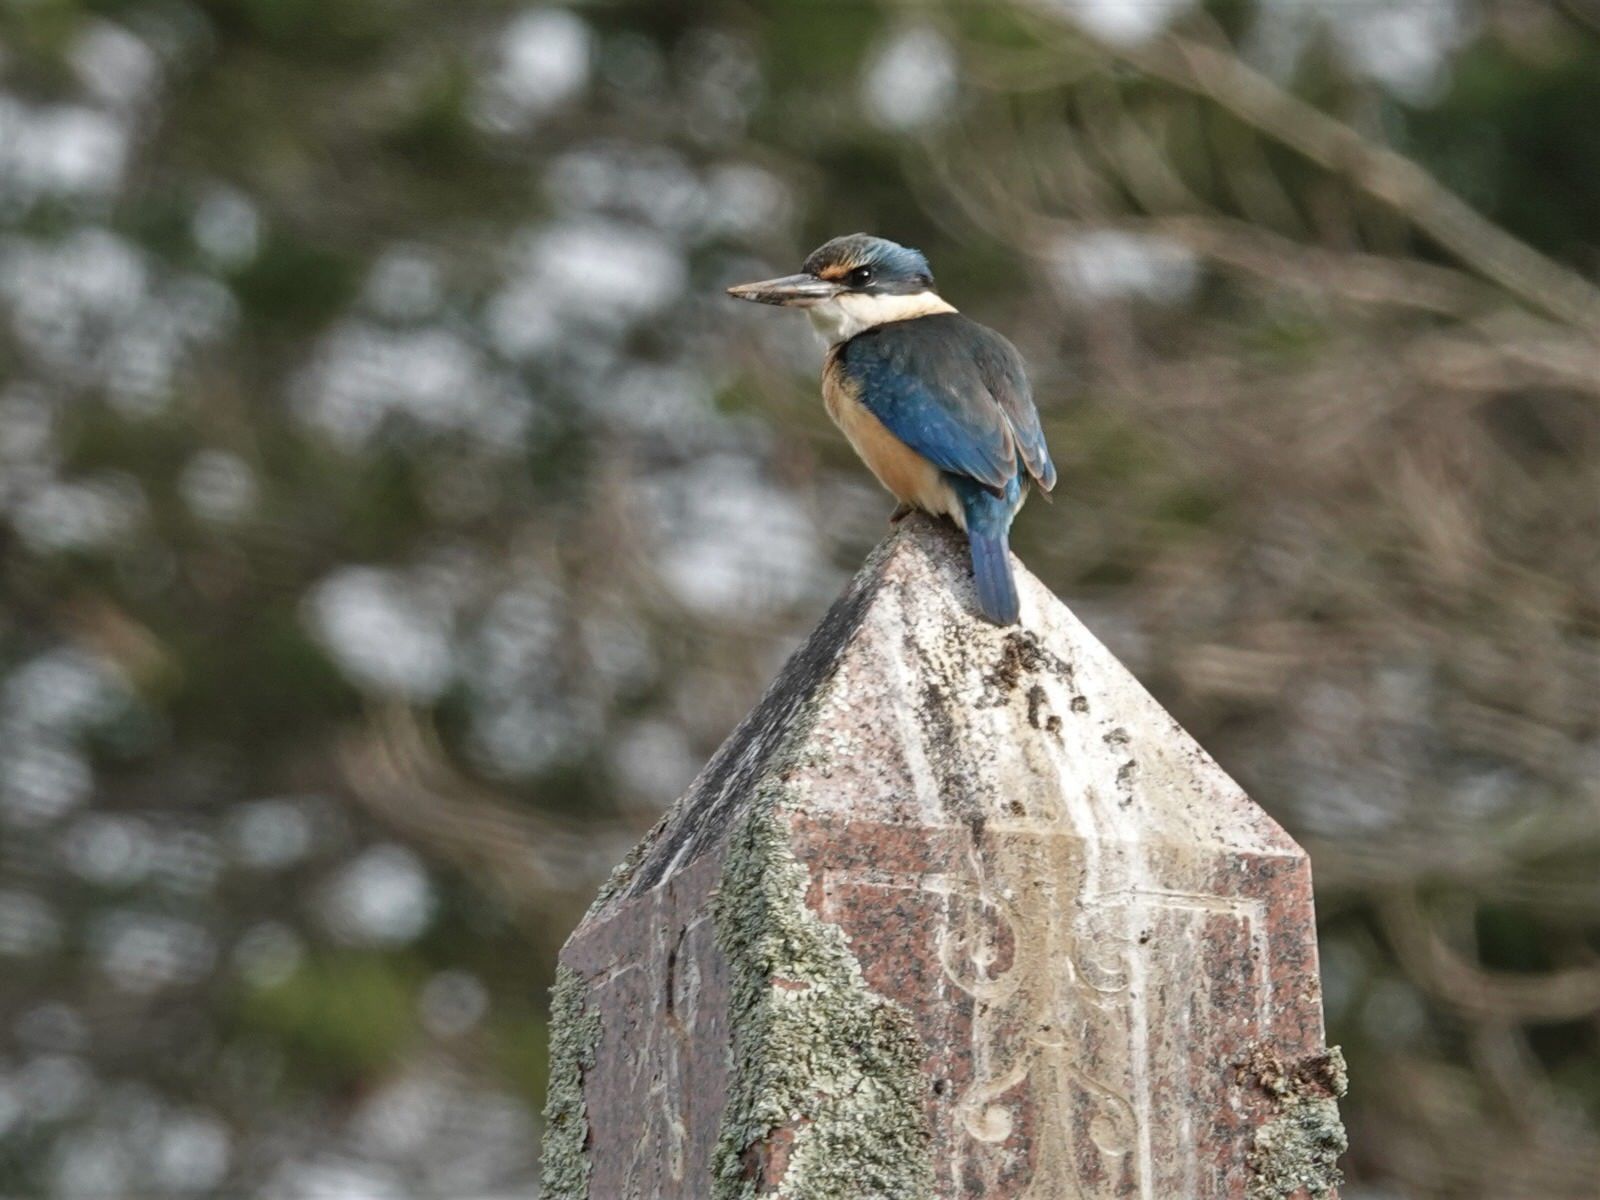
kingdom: Animalia
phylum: Chordata
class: Aves
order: Coraciiformes
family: Alcedinidae
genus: Todiramphus
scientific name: Todiramphus sanctus
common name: Sacred kingfisher
